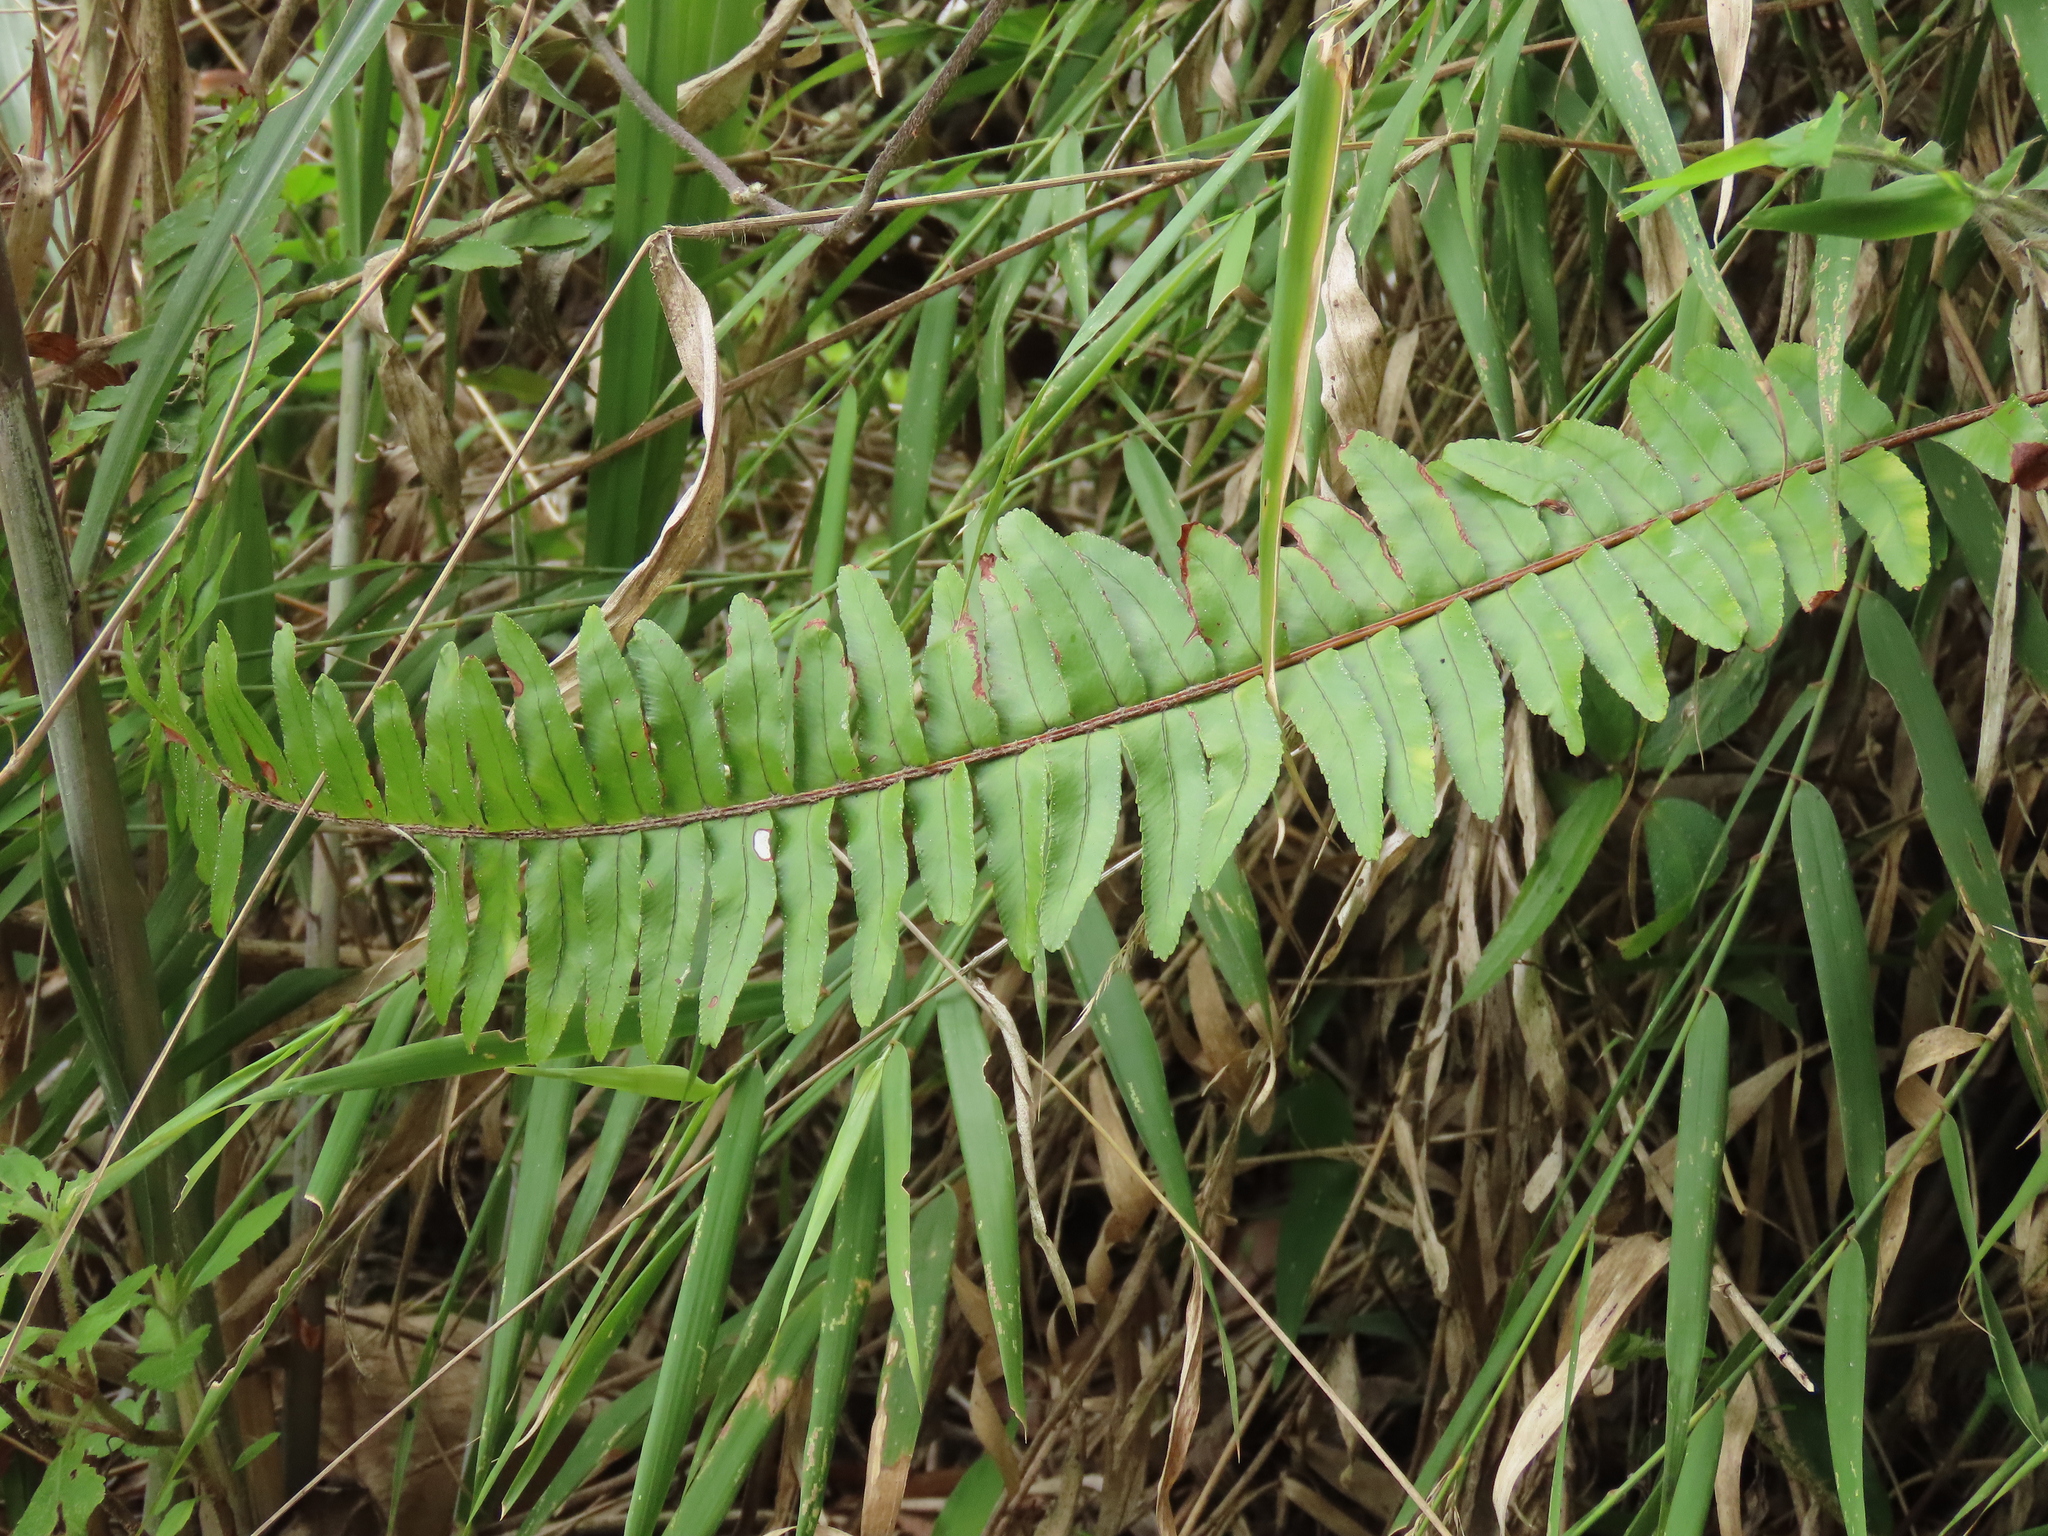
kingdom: Plantae
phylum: Tracheophyta
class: Polypodiopsida
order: Polypodiales
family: Nephrolepidaceae
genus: Nephrolepis
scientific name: Nephrolepis cordifolia
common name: Narrow swordfern
